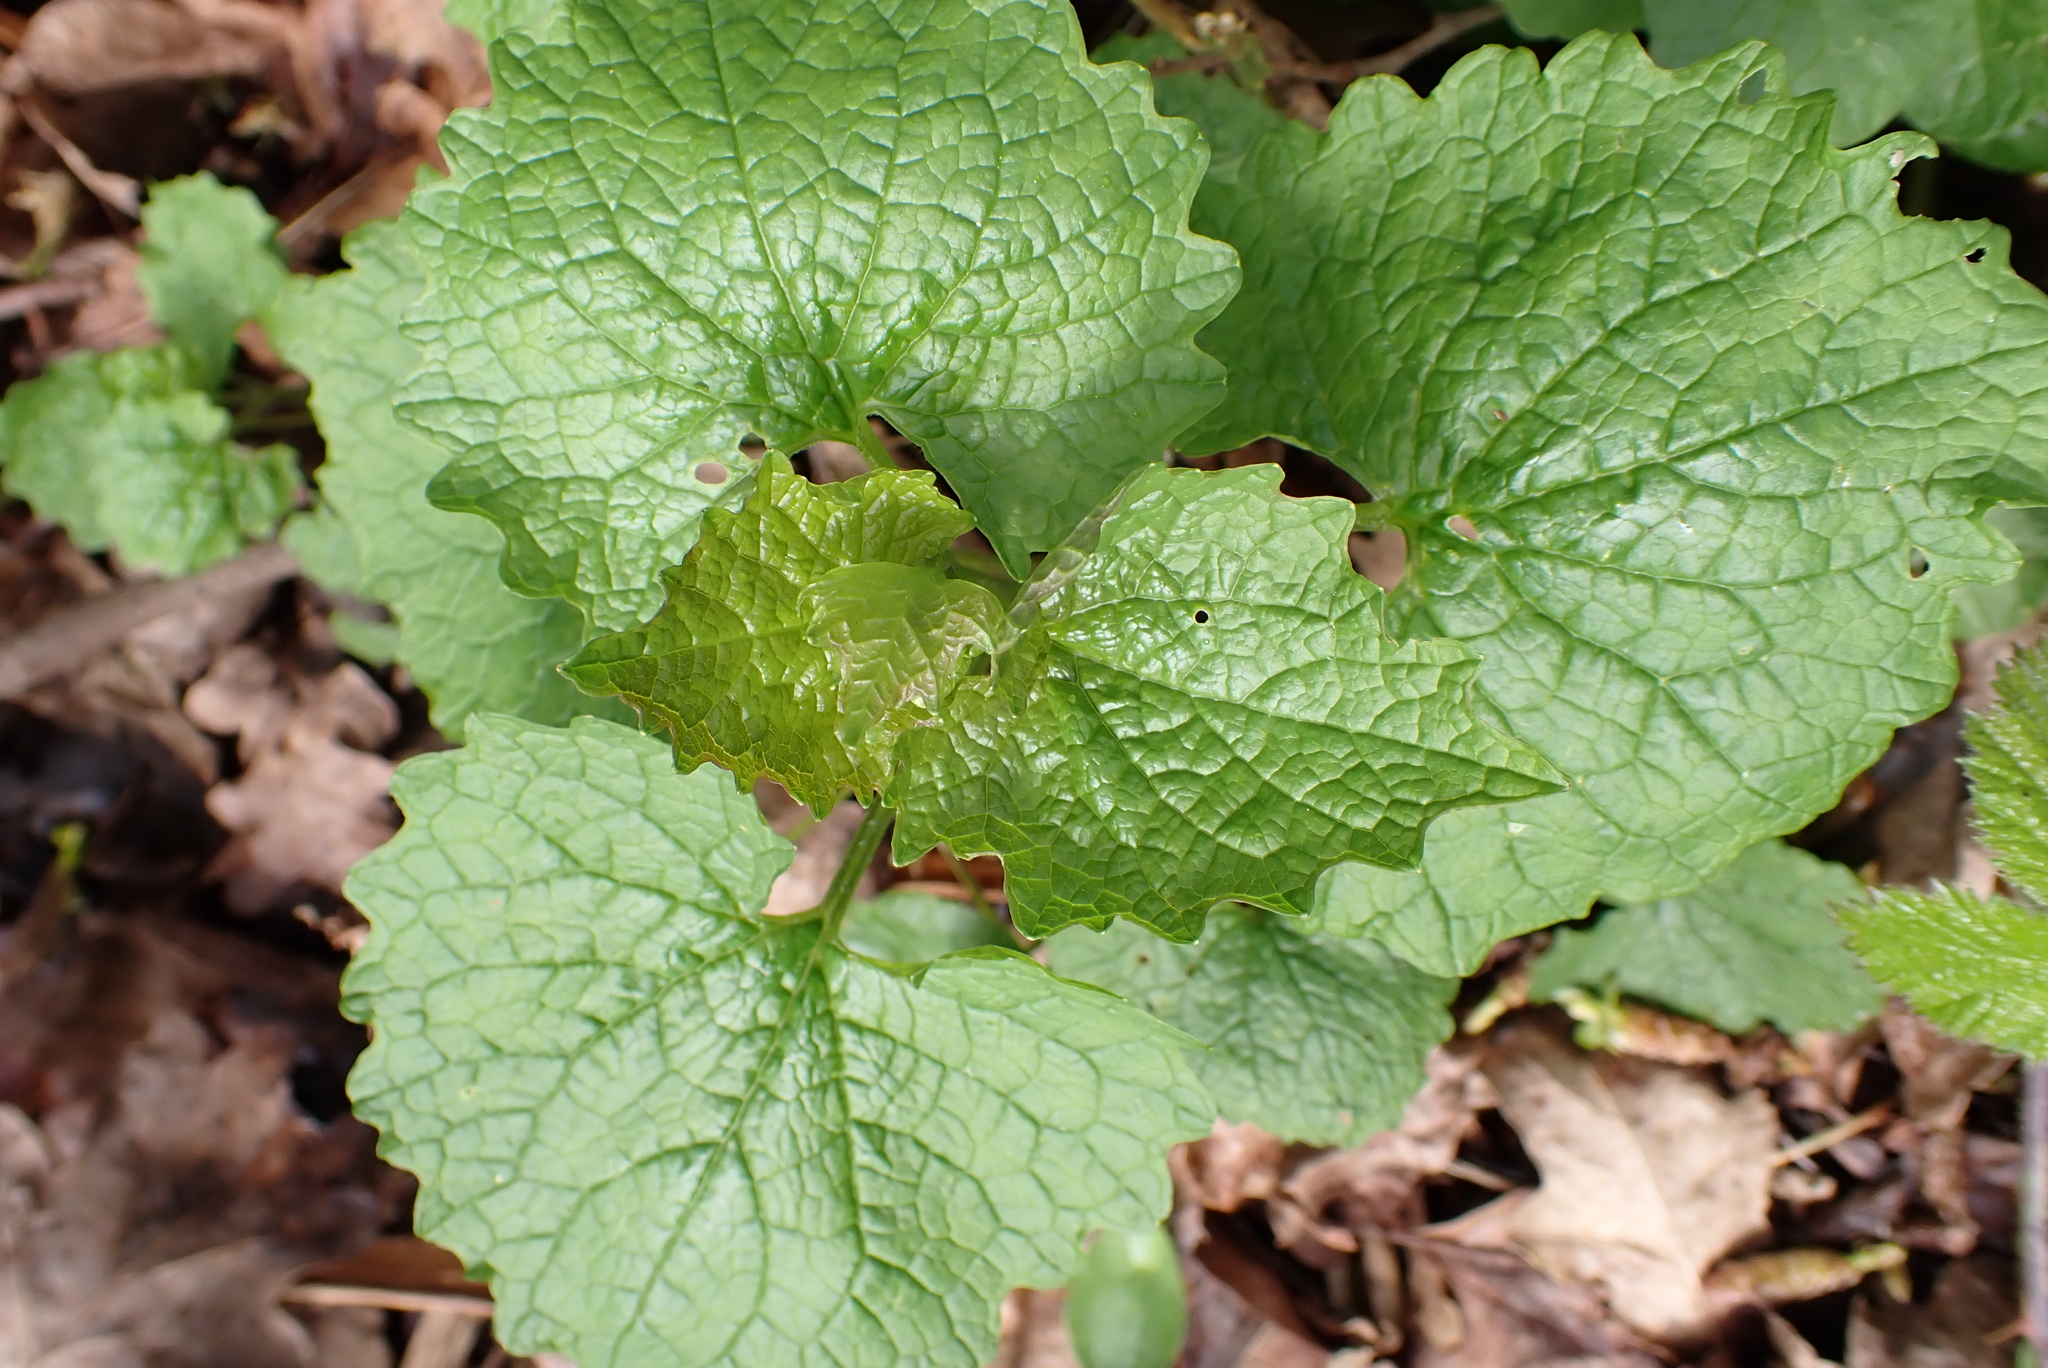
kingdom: Plantae
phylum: Tracheophyta
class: Magnoliopsida
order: Brassicales
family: Brassicaceae
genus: Alliaria
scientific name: Alliaria petiolata
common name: Garlic mustard
